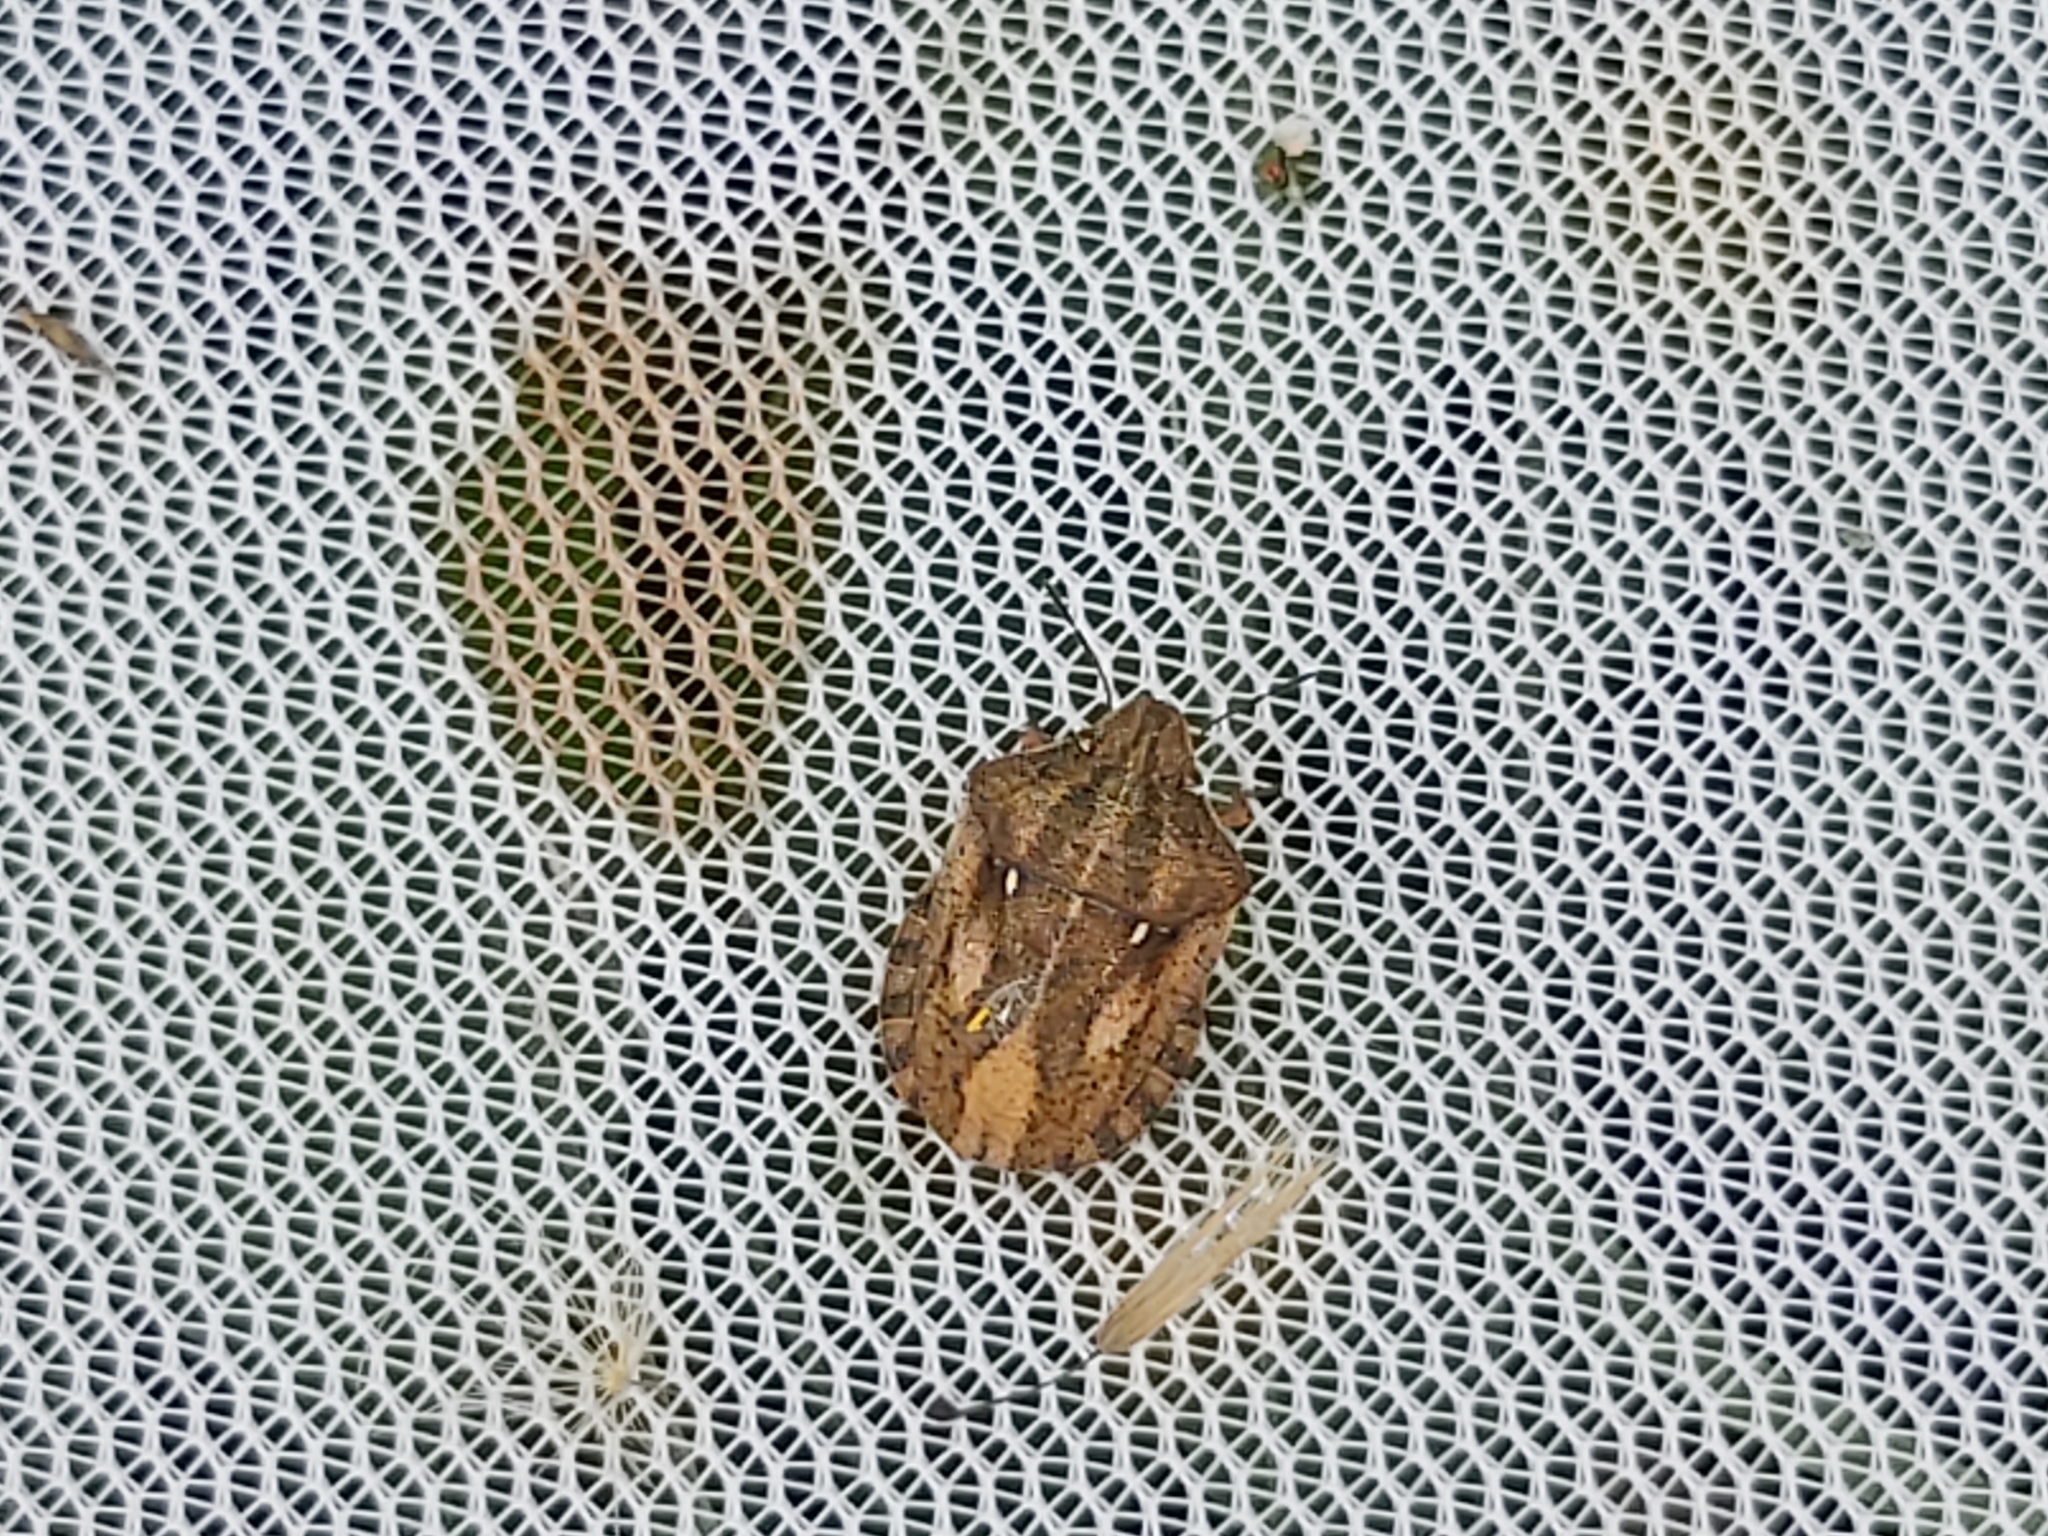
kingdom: Animalia
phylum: Arthropoda
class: Insecta
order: Hemiptera
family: Scutelleridae
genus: Eurygaster
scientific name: Eurygaster testudinaria
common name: Tortoise bug
